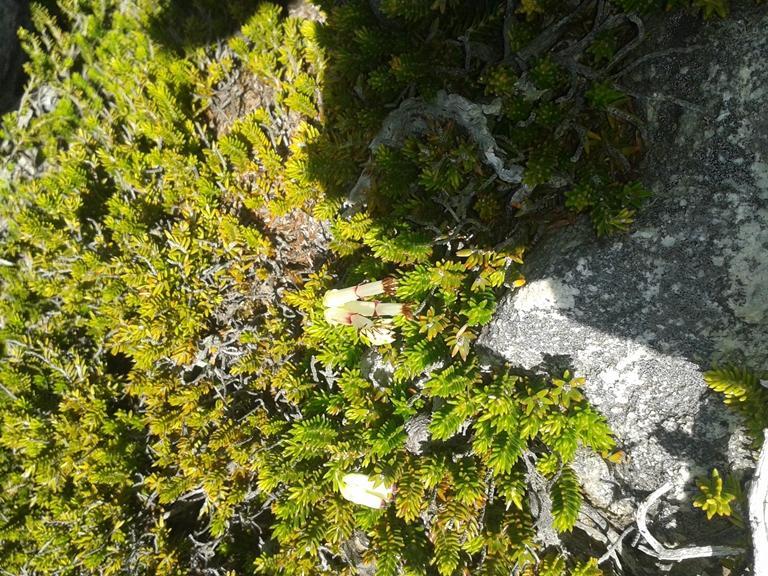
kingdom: Plantae
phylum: Tracheophyta
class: Magnoliopsida
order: Ericales
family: Ericaceae
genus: Erica
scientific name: Erica banksia
